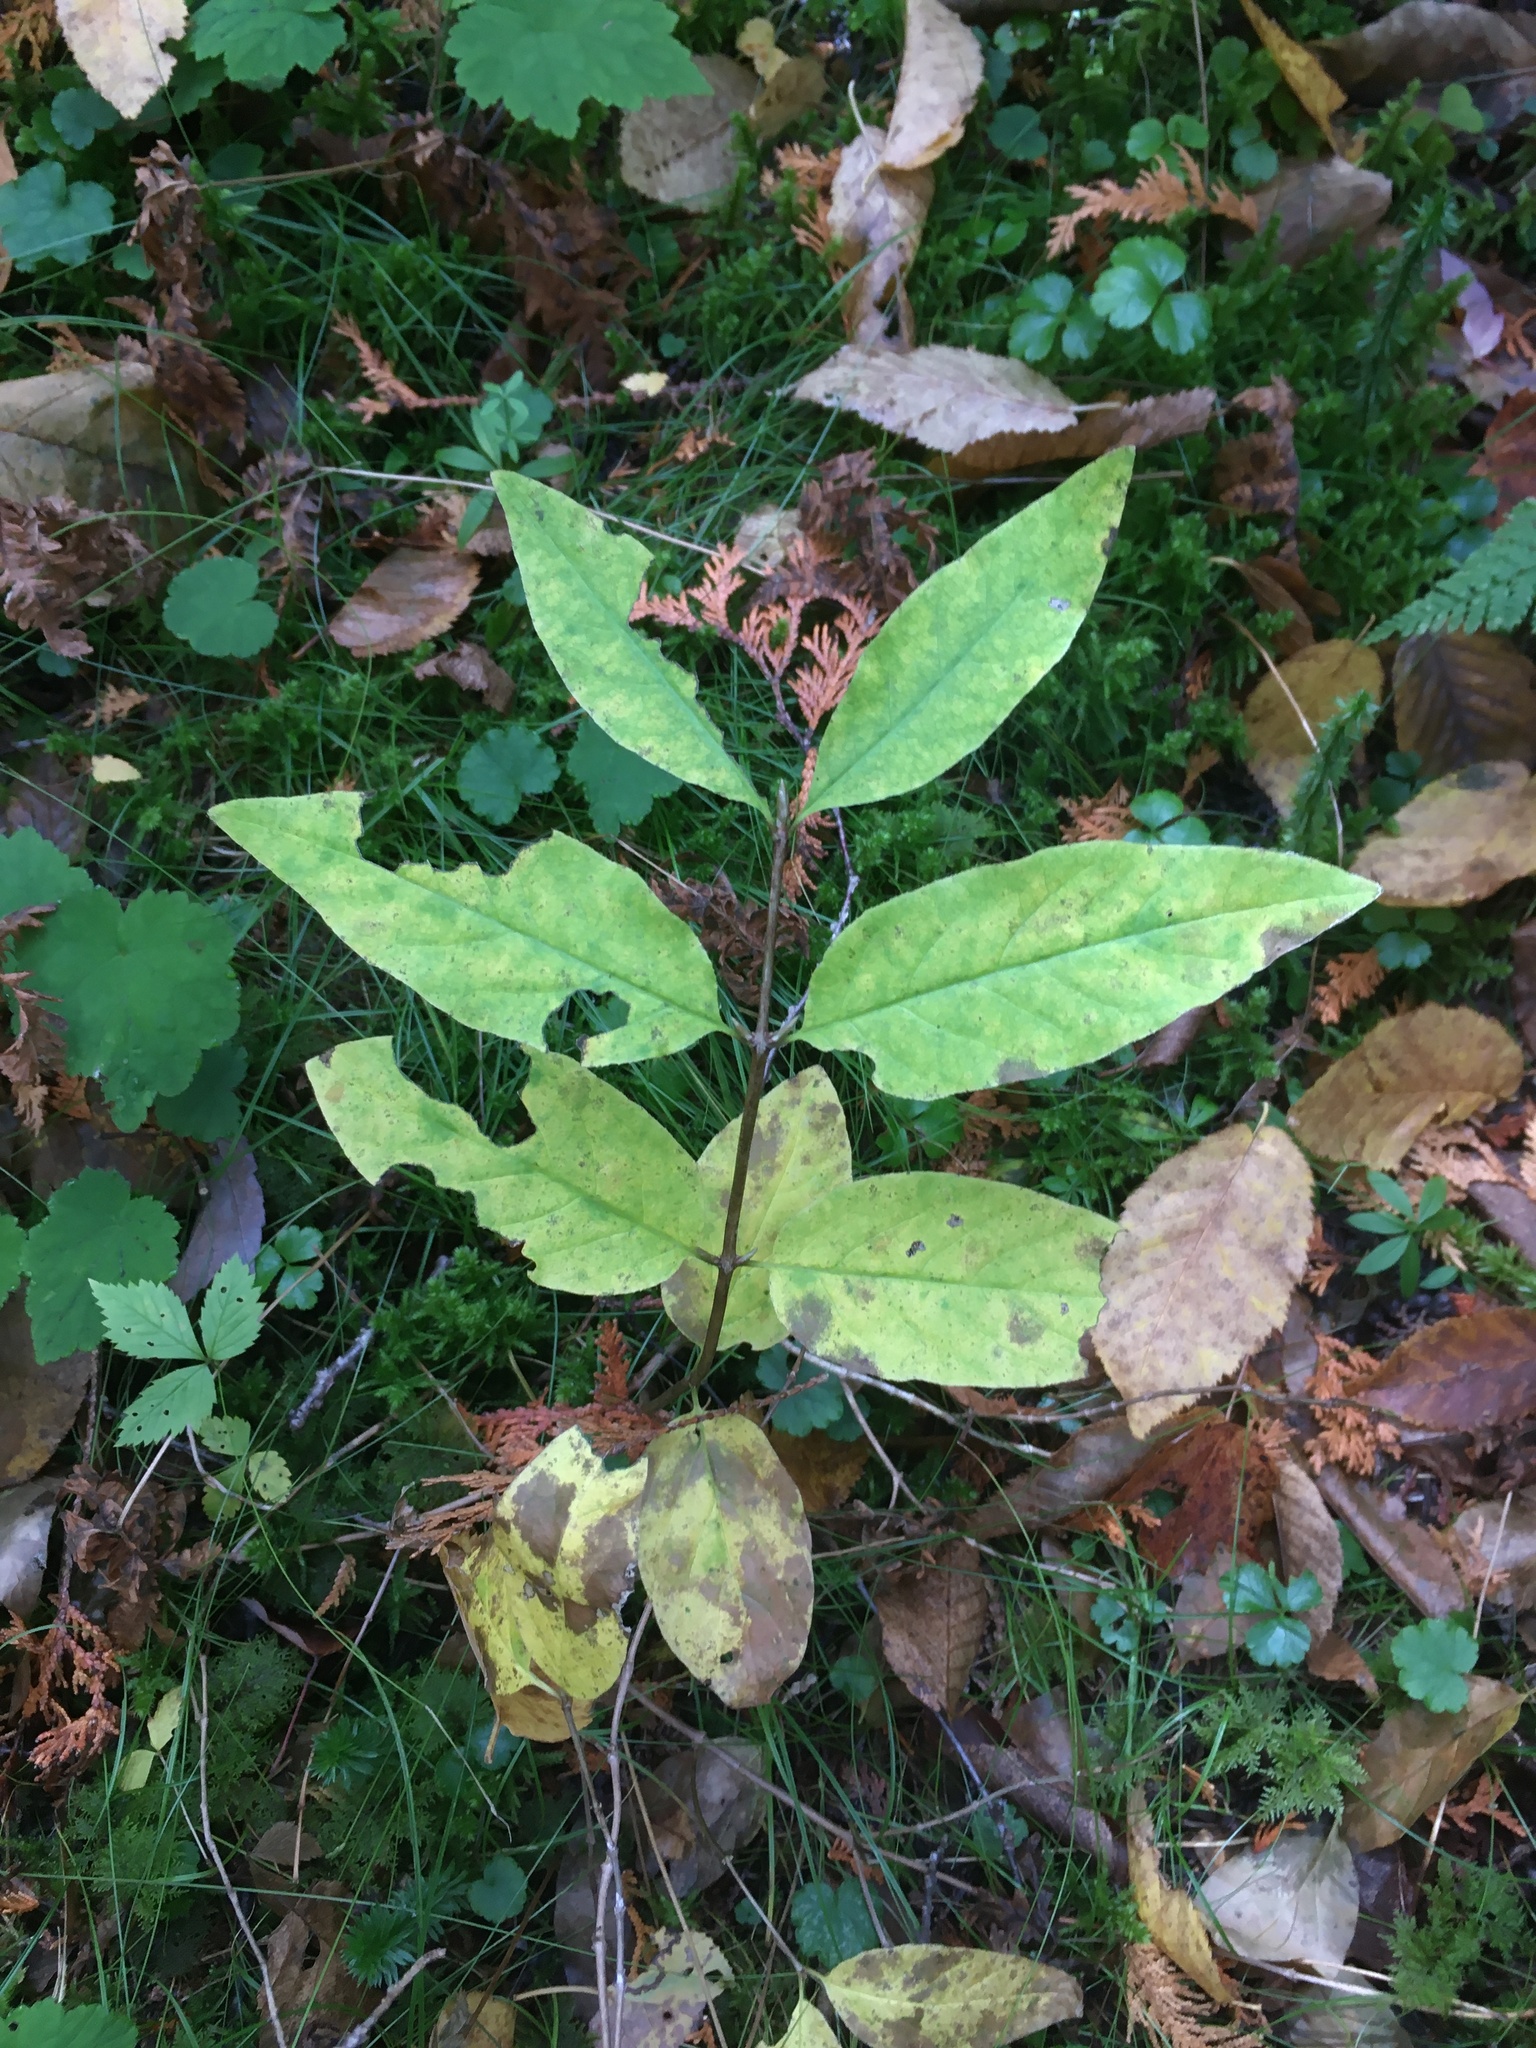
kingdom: Plantae
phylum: Tracheophyta
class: Magnoliopsida
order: Dipsacales
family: Caprifoliaceae
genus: Diervilla
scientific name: Diervilla lonicera
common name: Bush-honeysuckle
